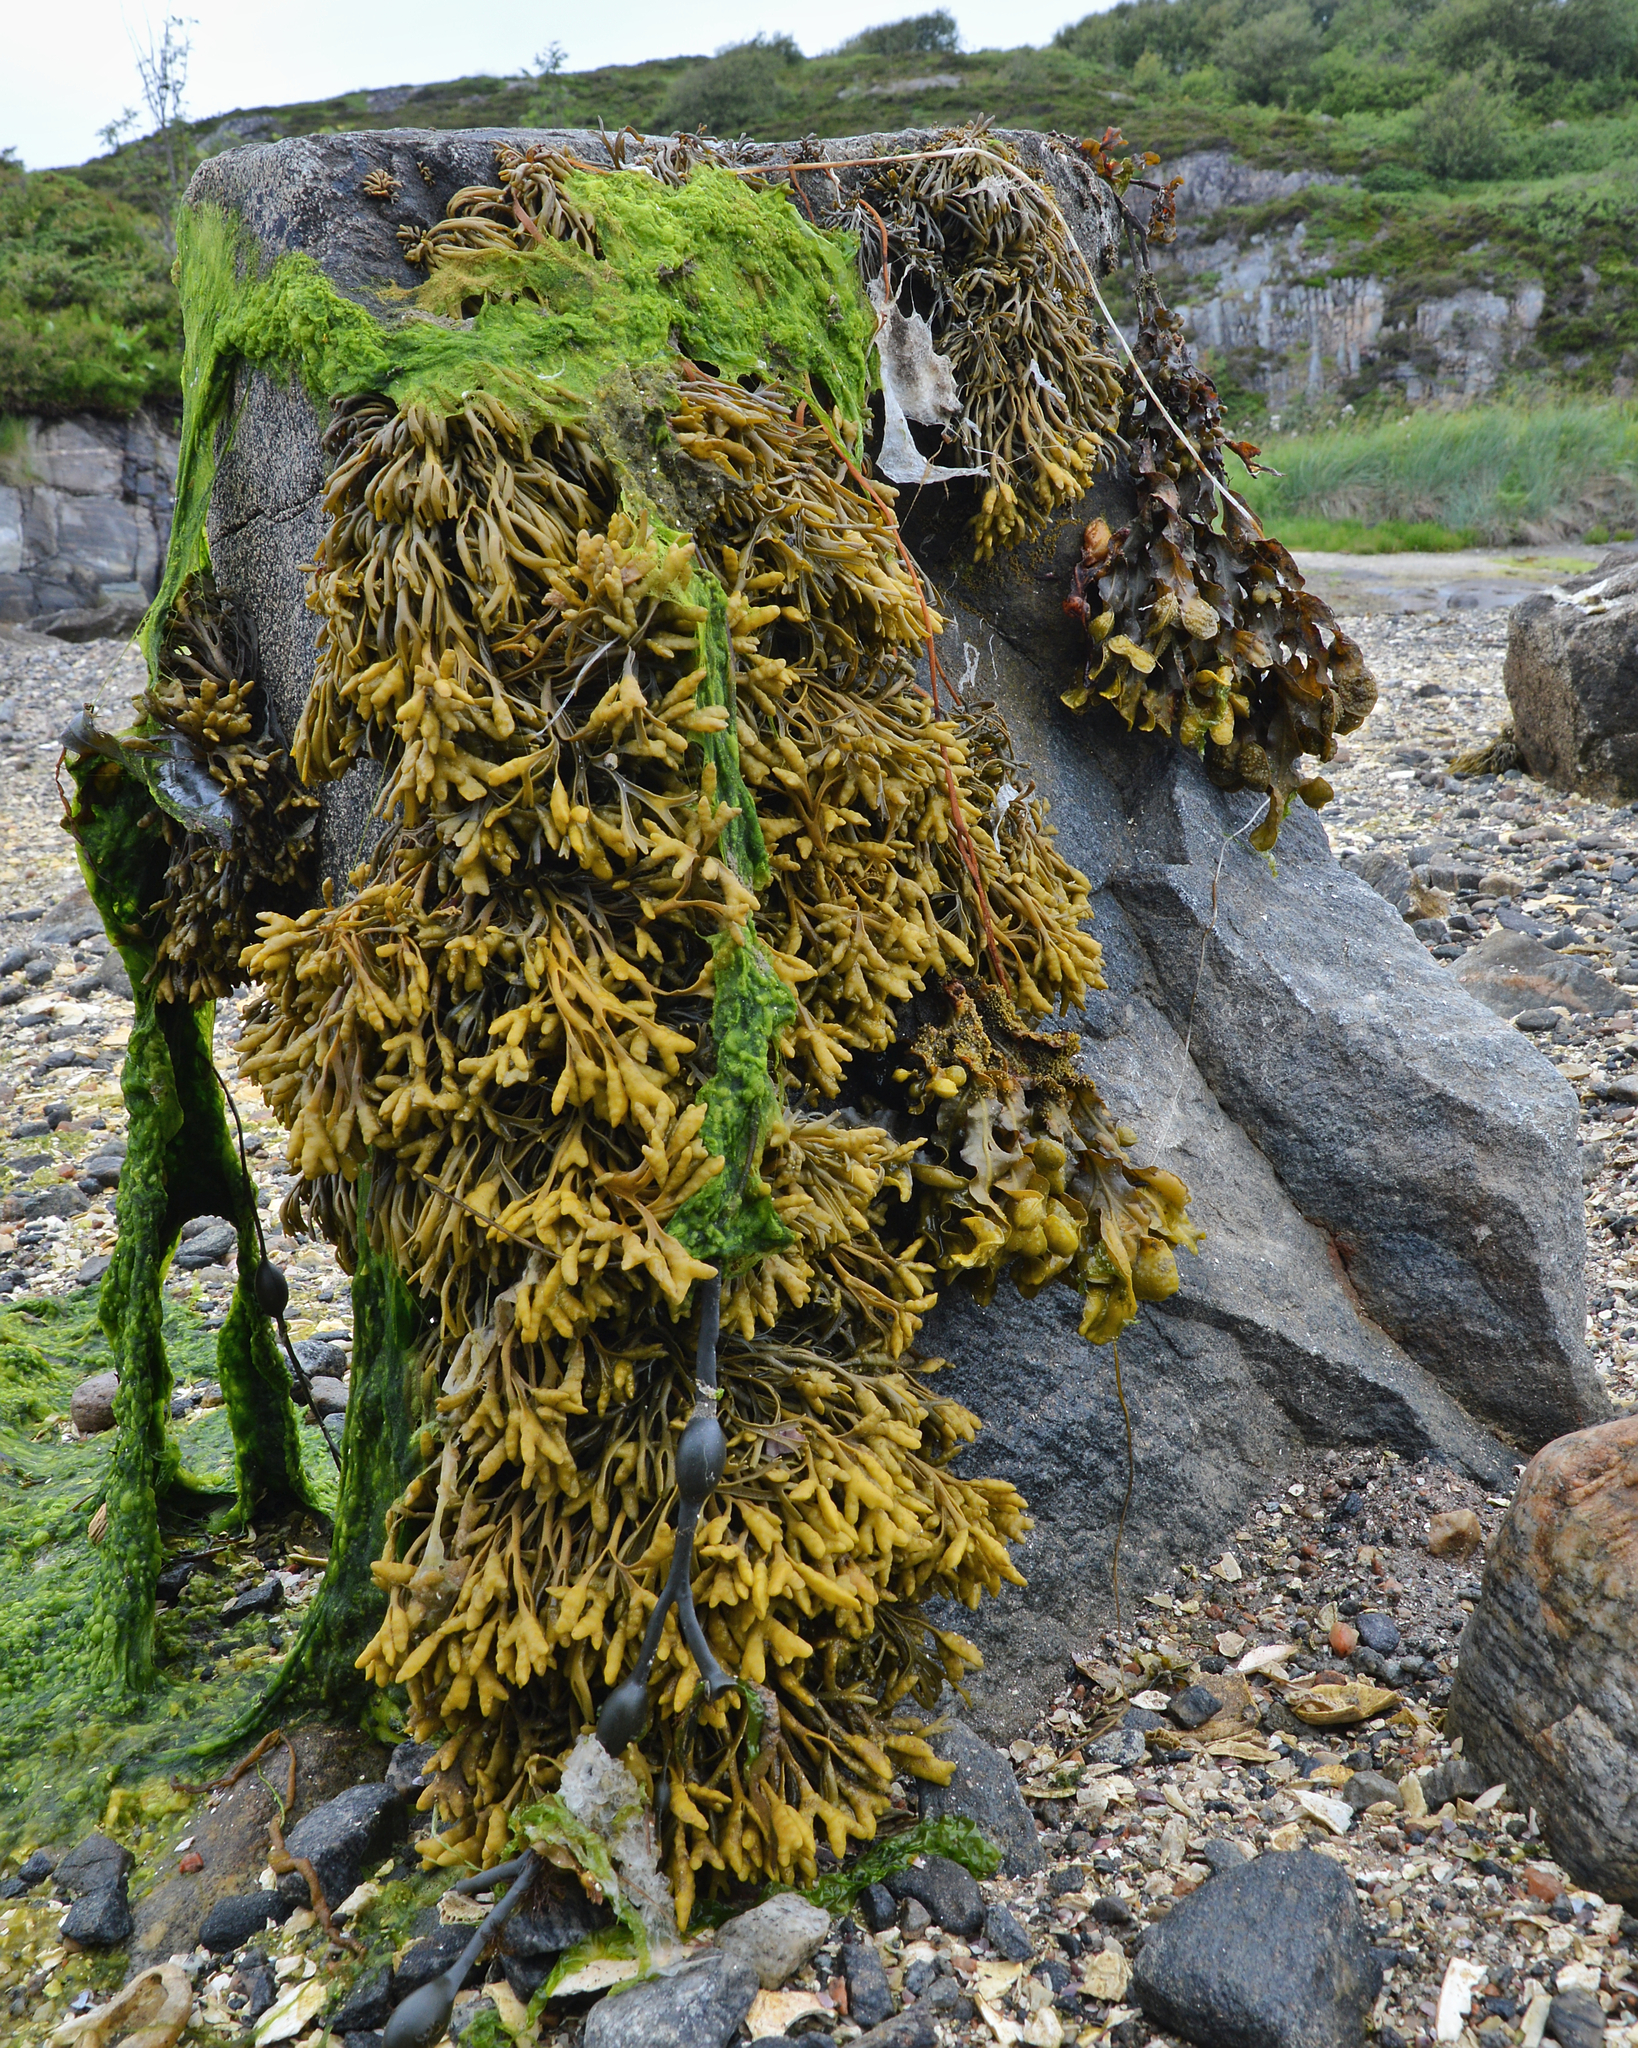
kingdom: Chromista
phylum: Ochrophyta
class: Phaeophyceae
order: Fucales
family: Fucaceae
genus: Pelvetia
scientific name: Pelvetia canaliculata
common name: Channelled wrack
